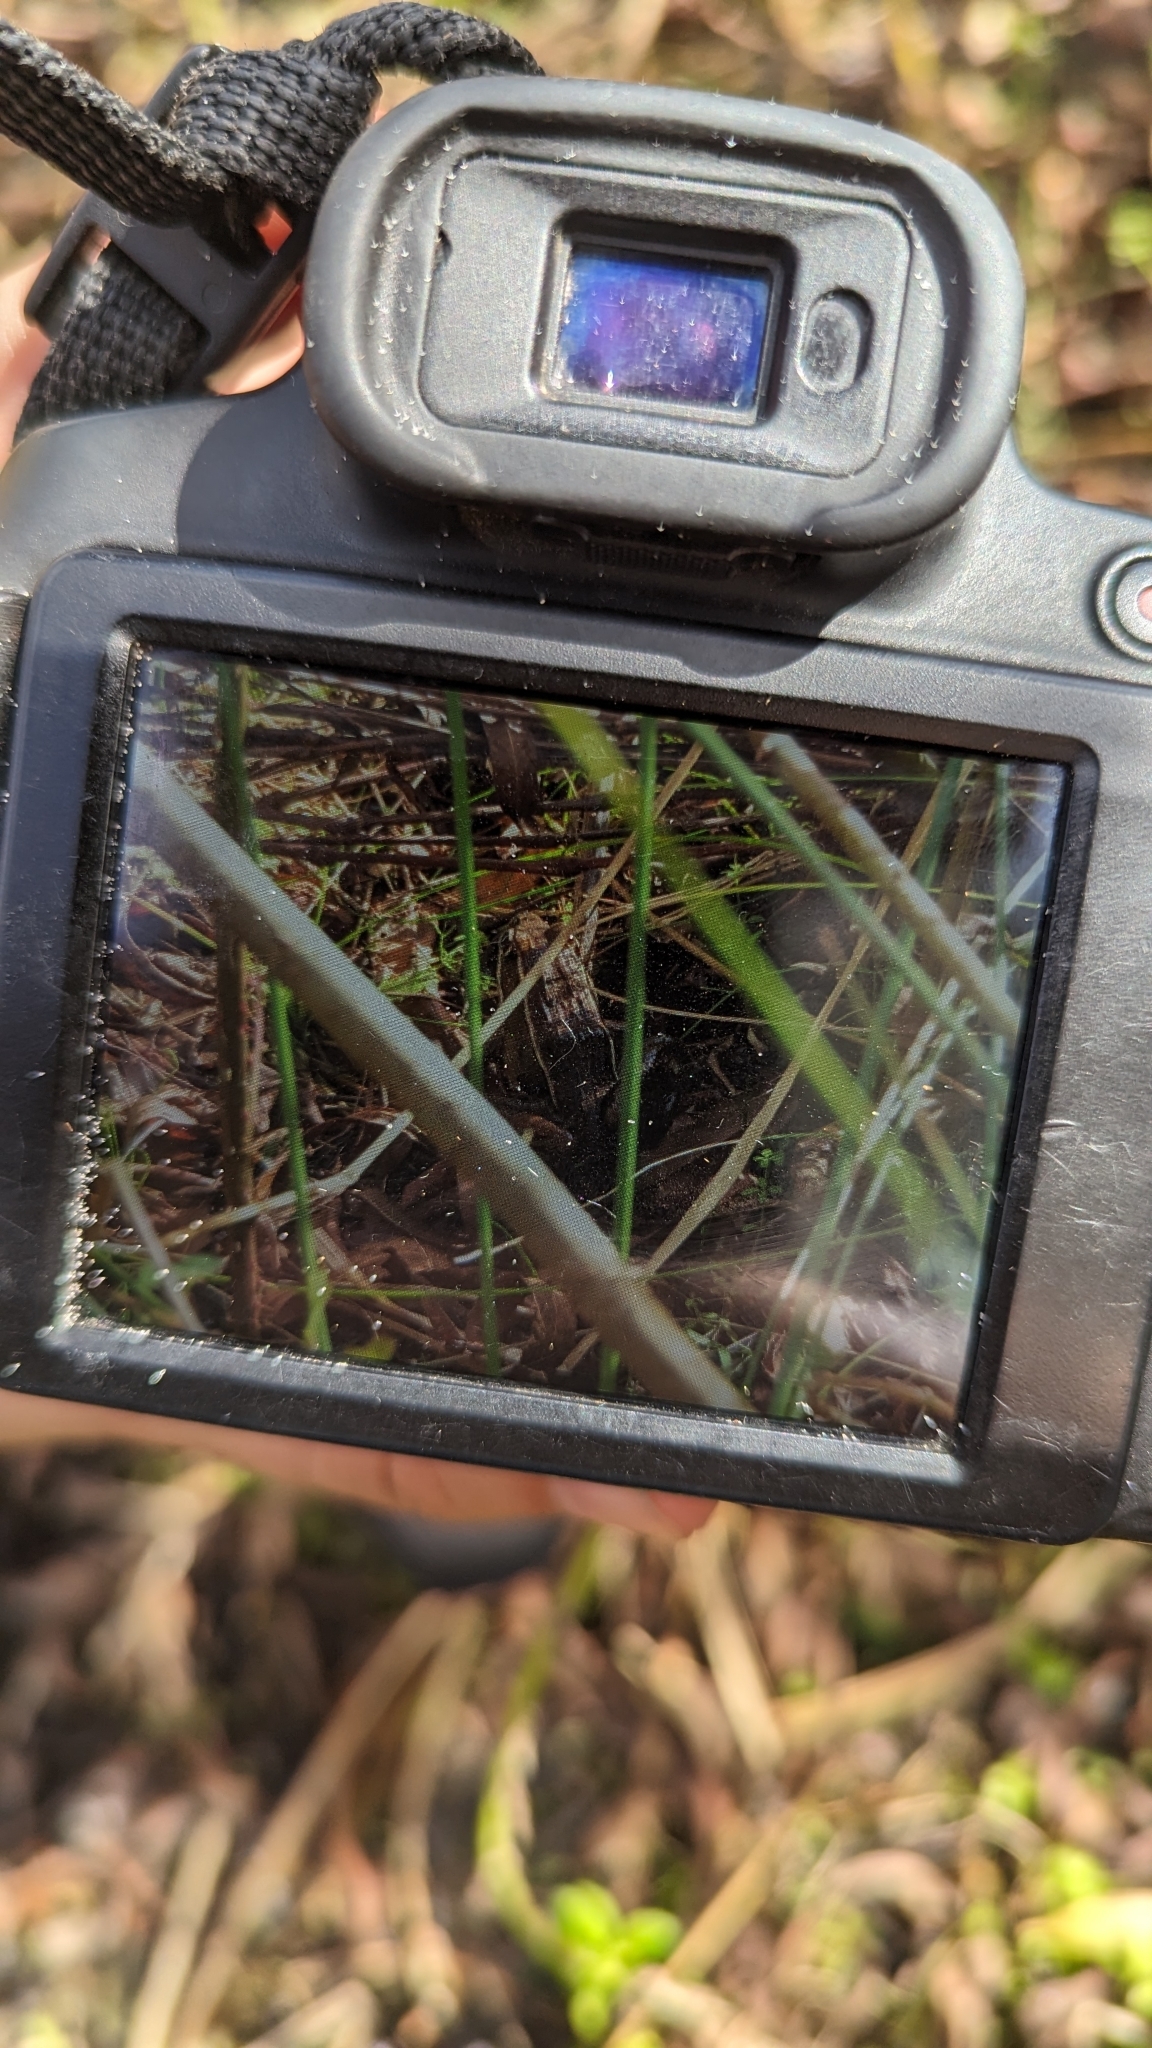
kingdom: Animalia
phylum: Chordata
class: Amphibia
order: Anura
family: Ranidae
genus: Lithobates
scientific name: Lithobates sphenocephalus
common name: Southern leopard frog
